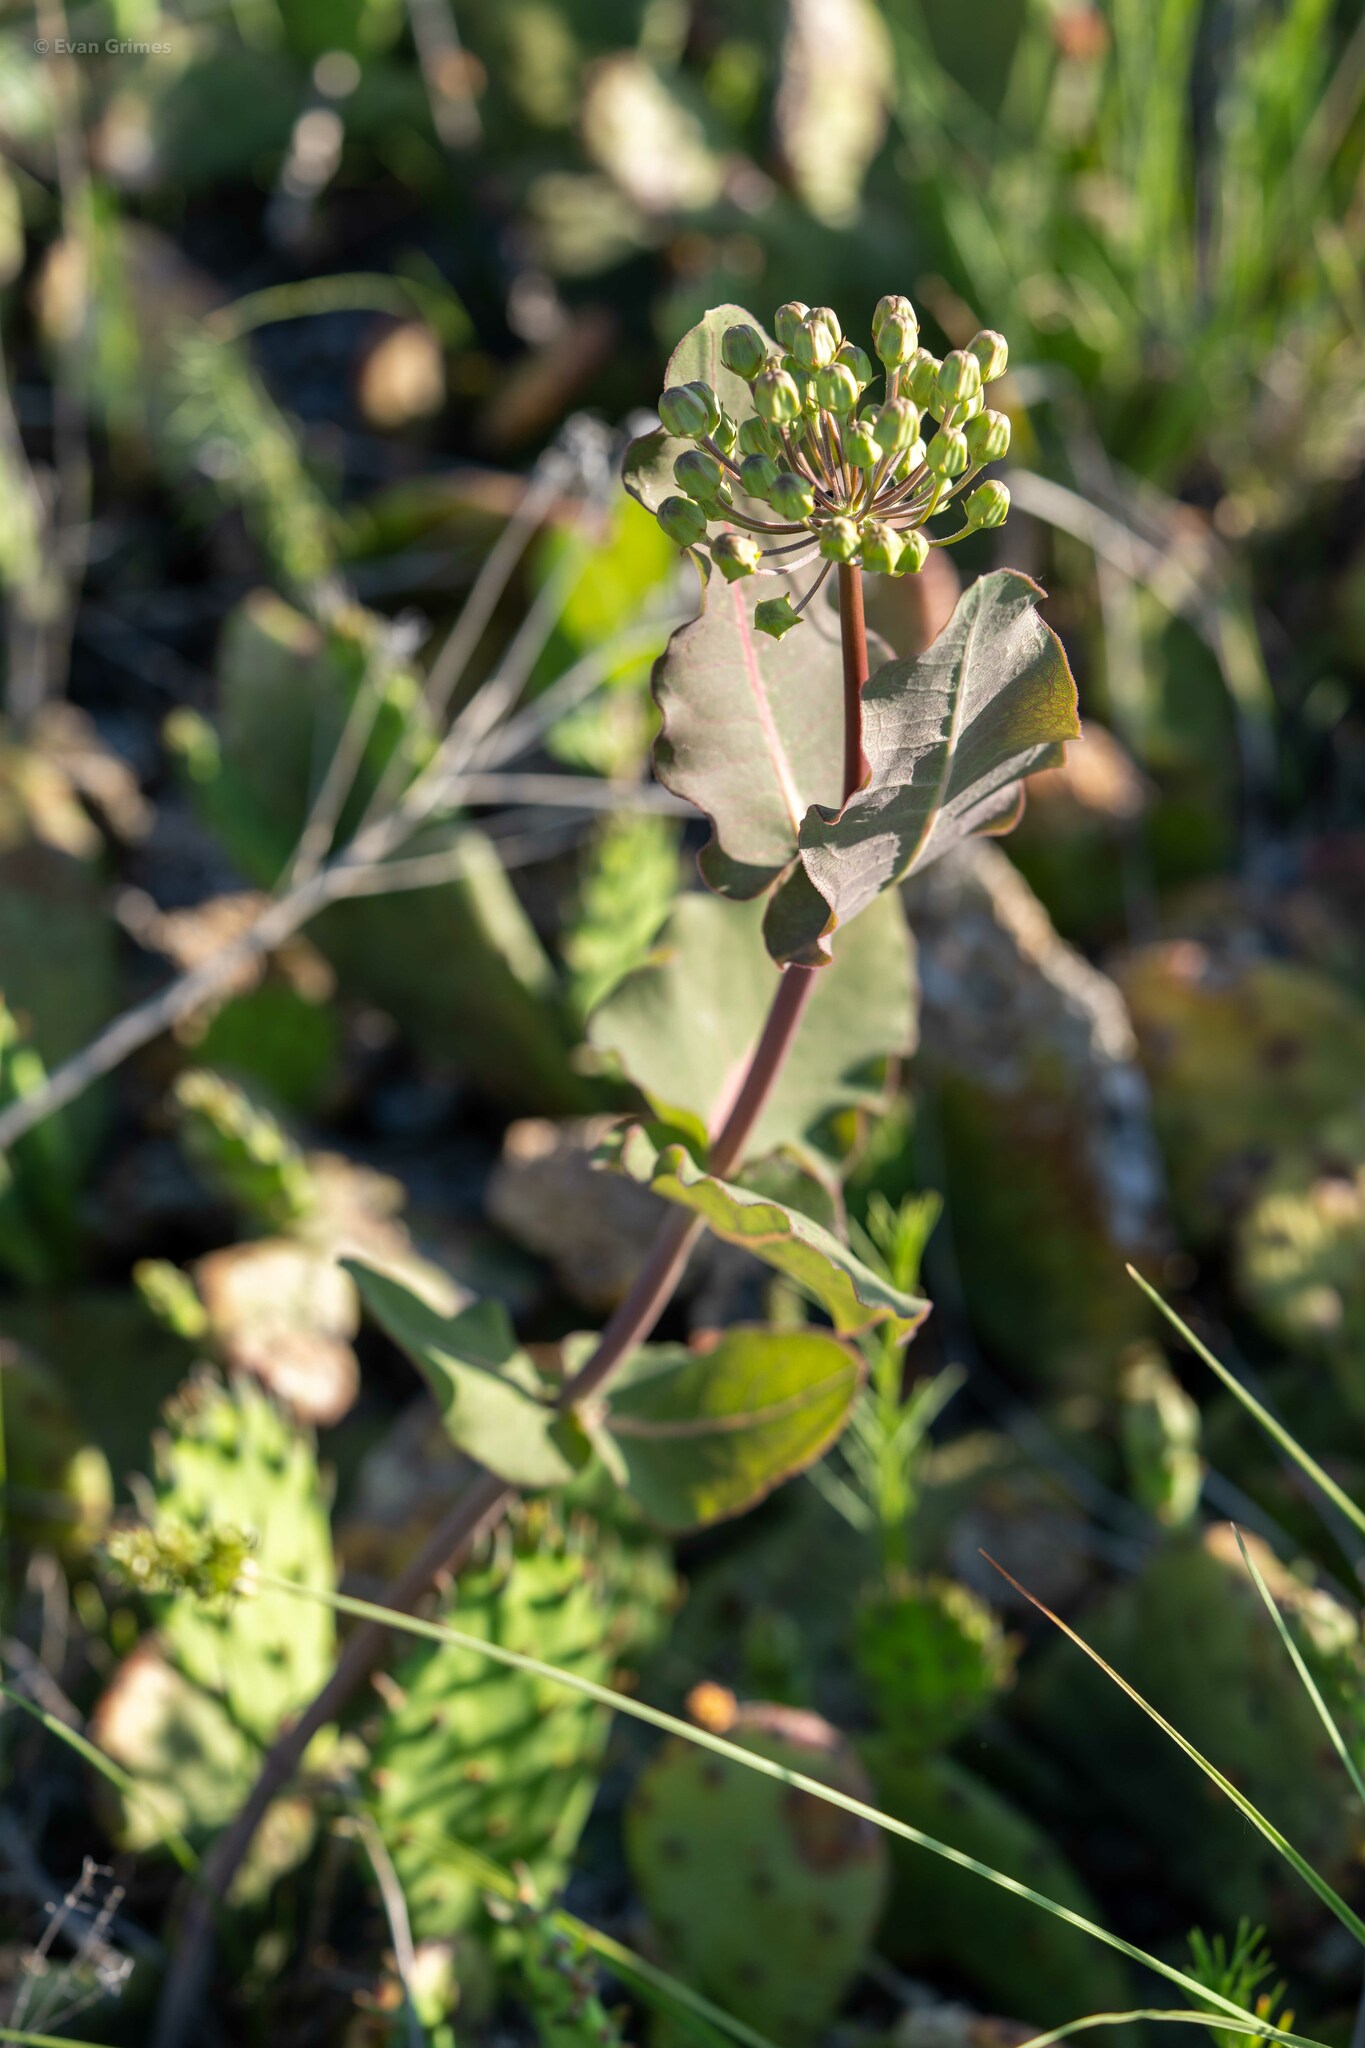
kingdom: Plantae
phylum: Tracheophyta
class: Magnoliopsida
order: Gentianales
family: Apocynaceae
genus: Asclepias
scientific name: Asclepias amplexicaulis
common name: Blunt-leaf milkweed
